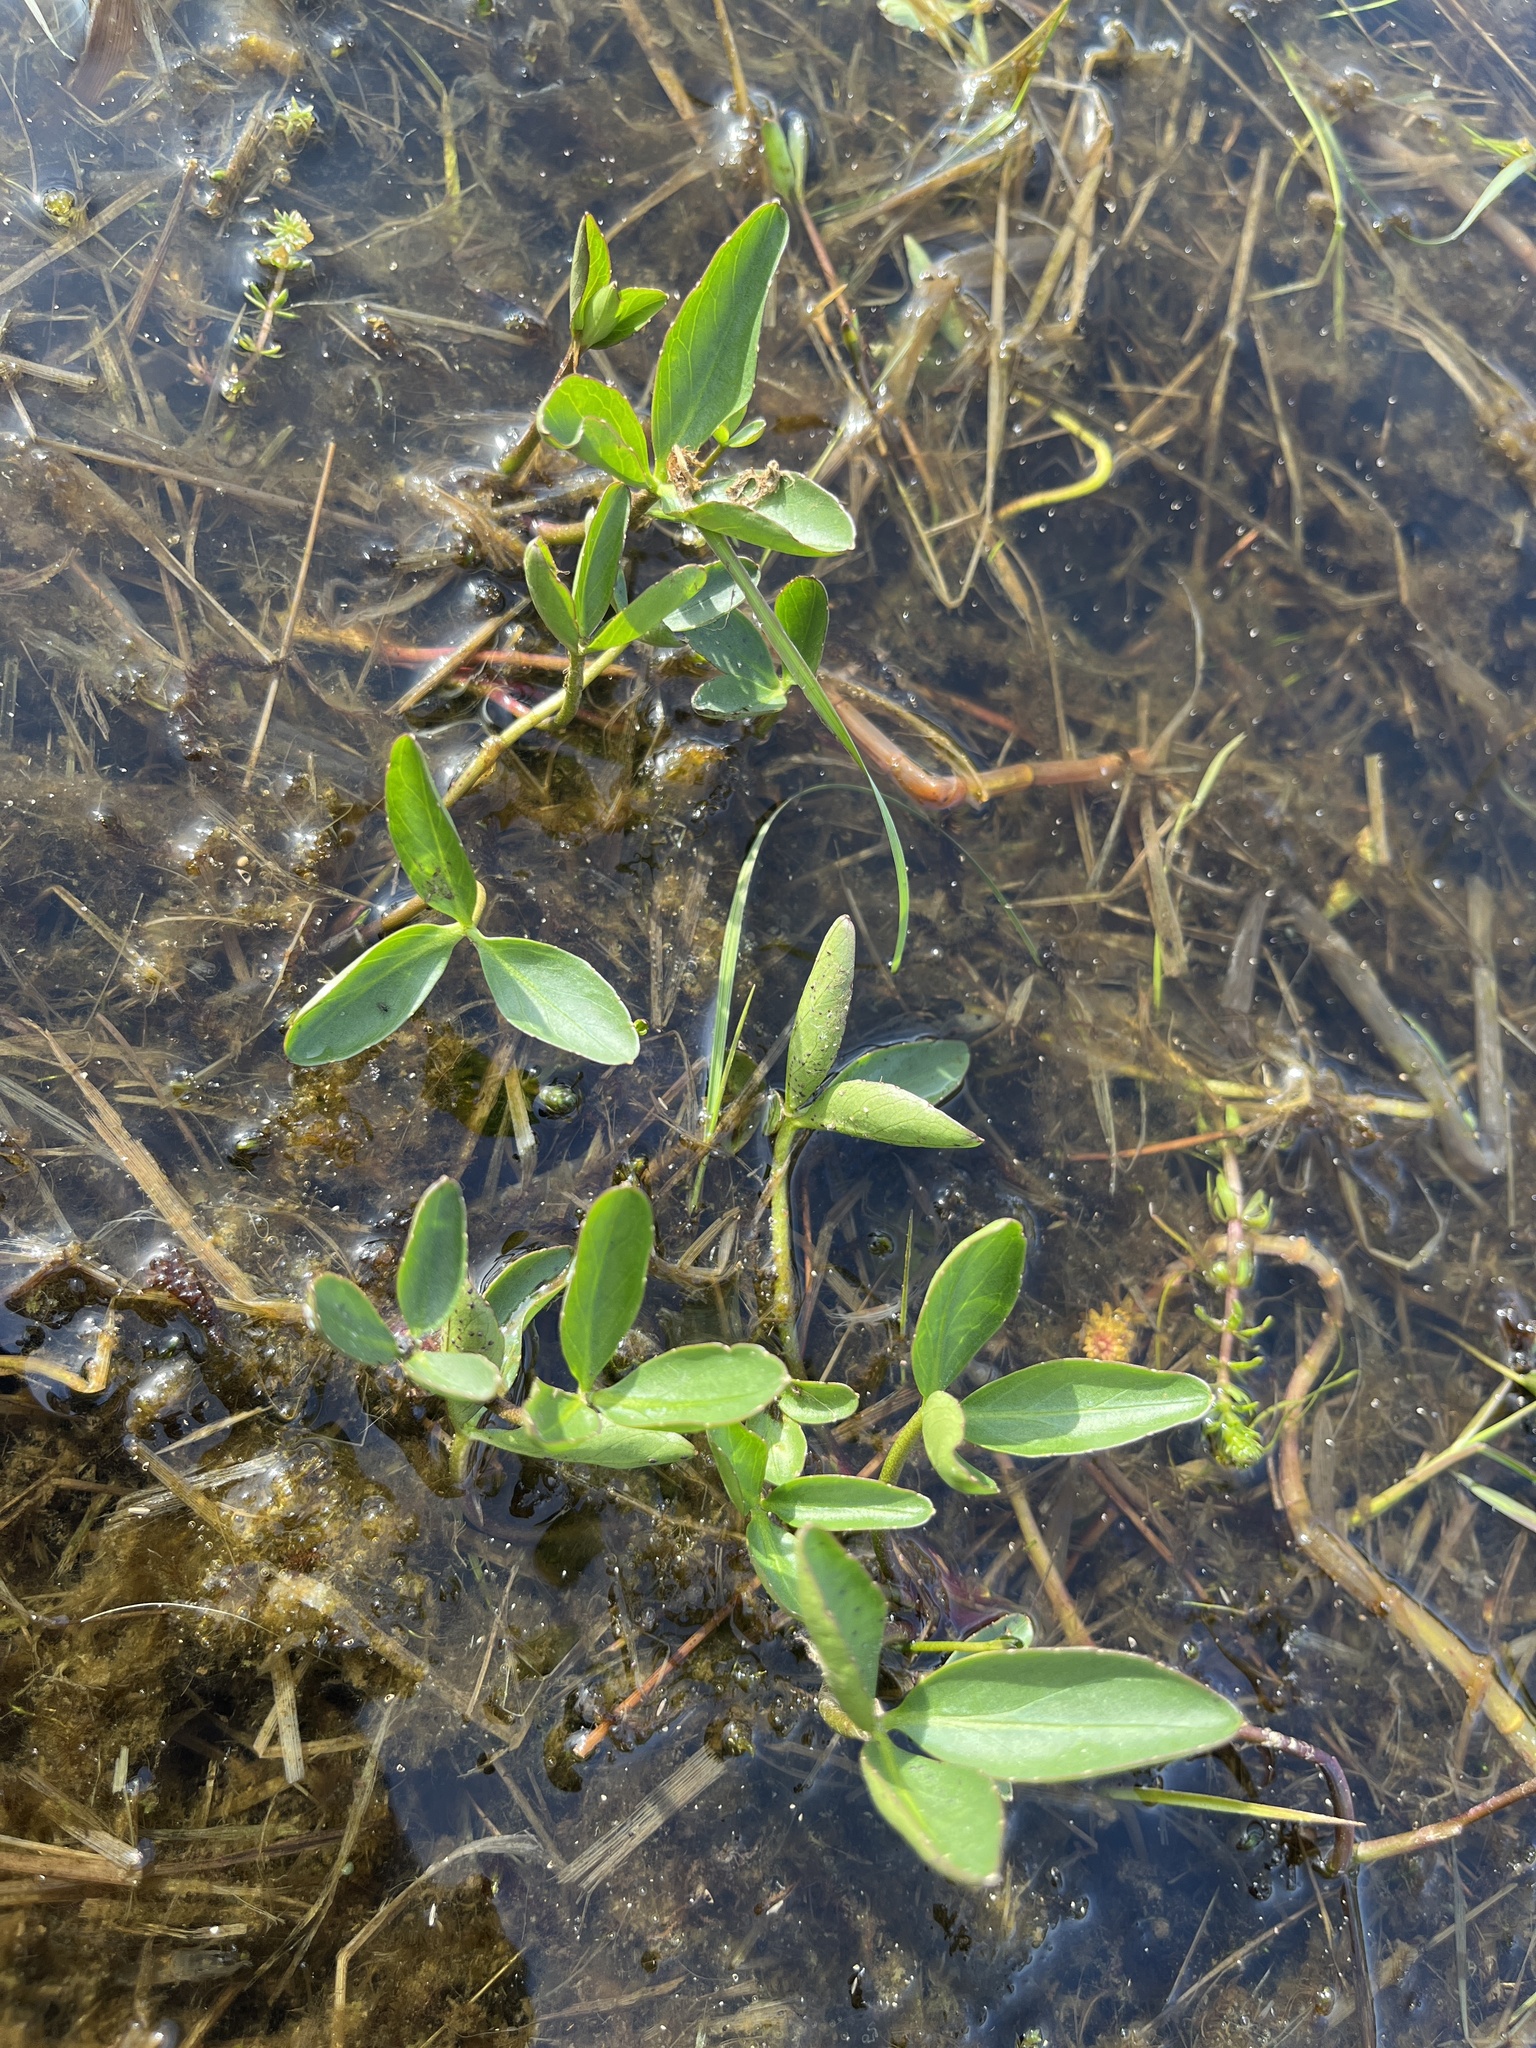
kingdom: Plantae
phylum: Tracheophyta
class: Magnoliopsida
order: Asterales
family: Menyanthaceae
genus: Menyanthes
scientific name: Menyanthes trifoliata
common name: Bogbean
